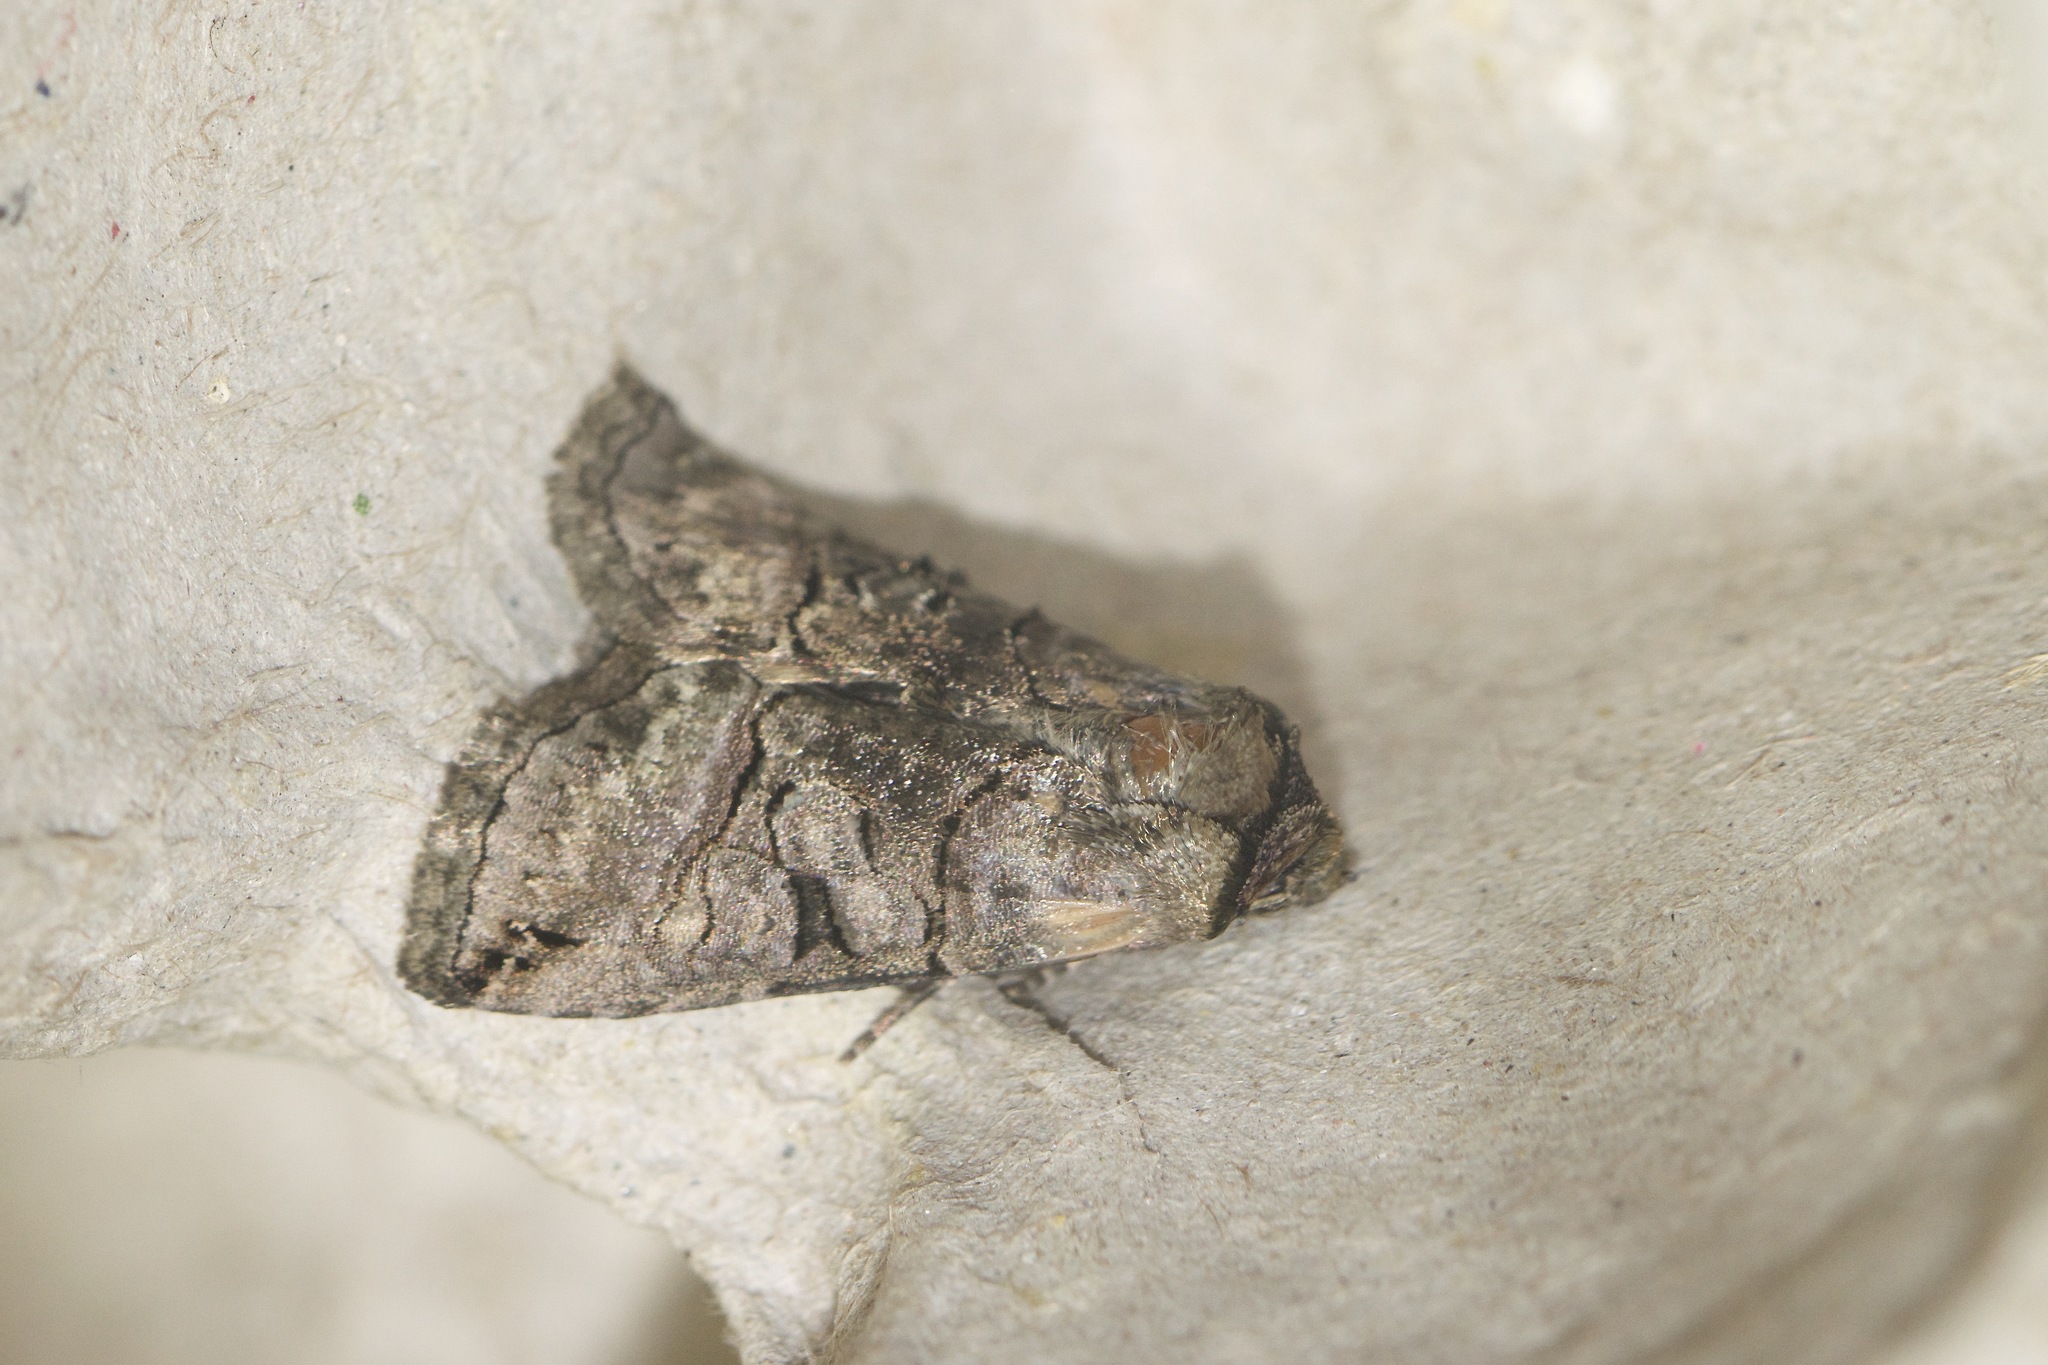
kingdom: Animalia
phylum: Arthropoda
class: Insecta
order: Lepidoptera
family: Noctuidae
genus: Abrostola
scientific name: Abrostola urentis
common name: Spectacled nettle moth
